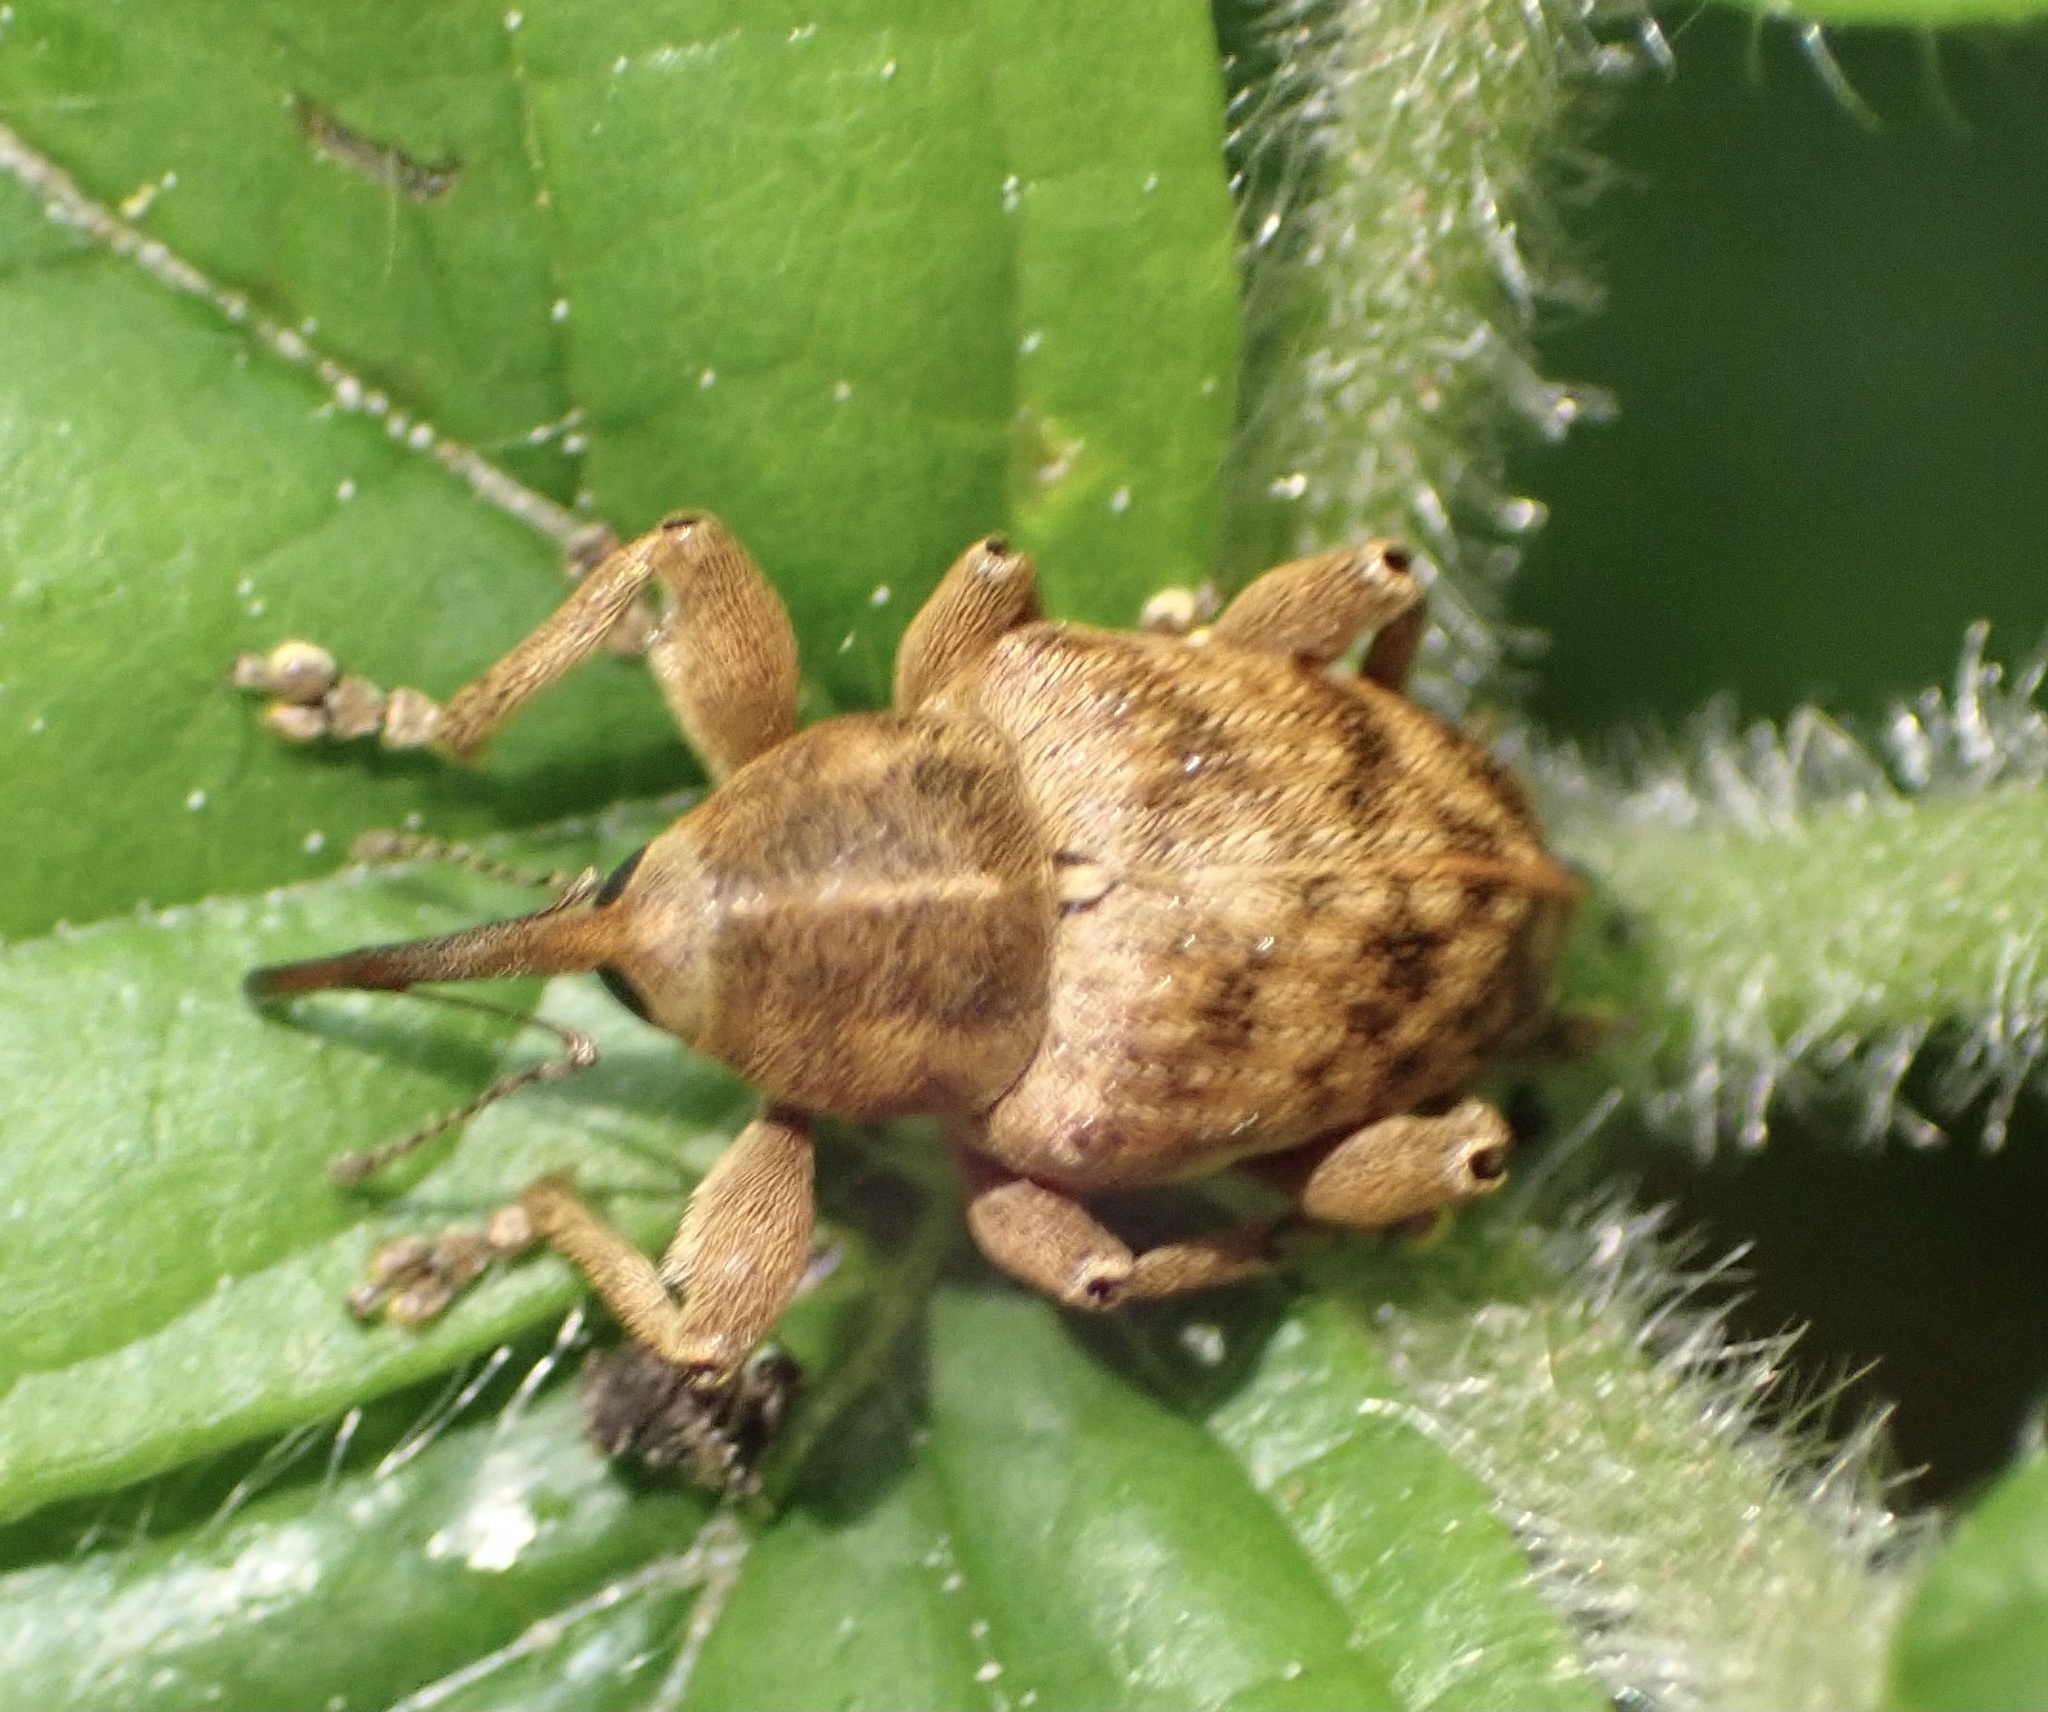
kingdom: Animalia
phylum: Arthropoda
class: Insecta
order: Coleoptera
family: Curculionidae
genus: Curculio
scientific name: Curculio venosus
